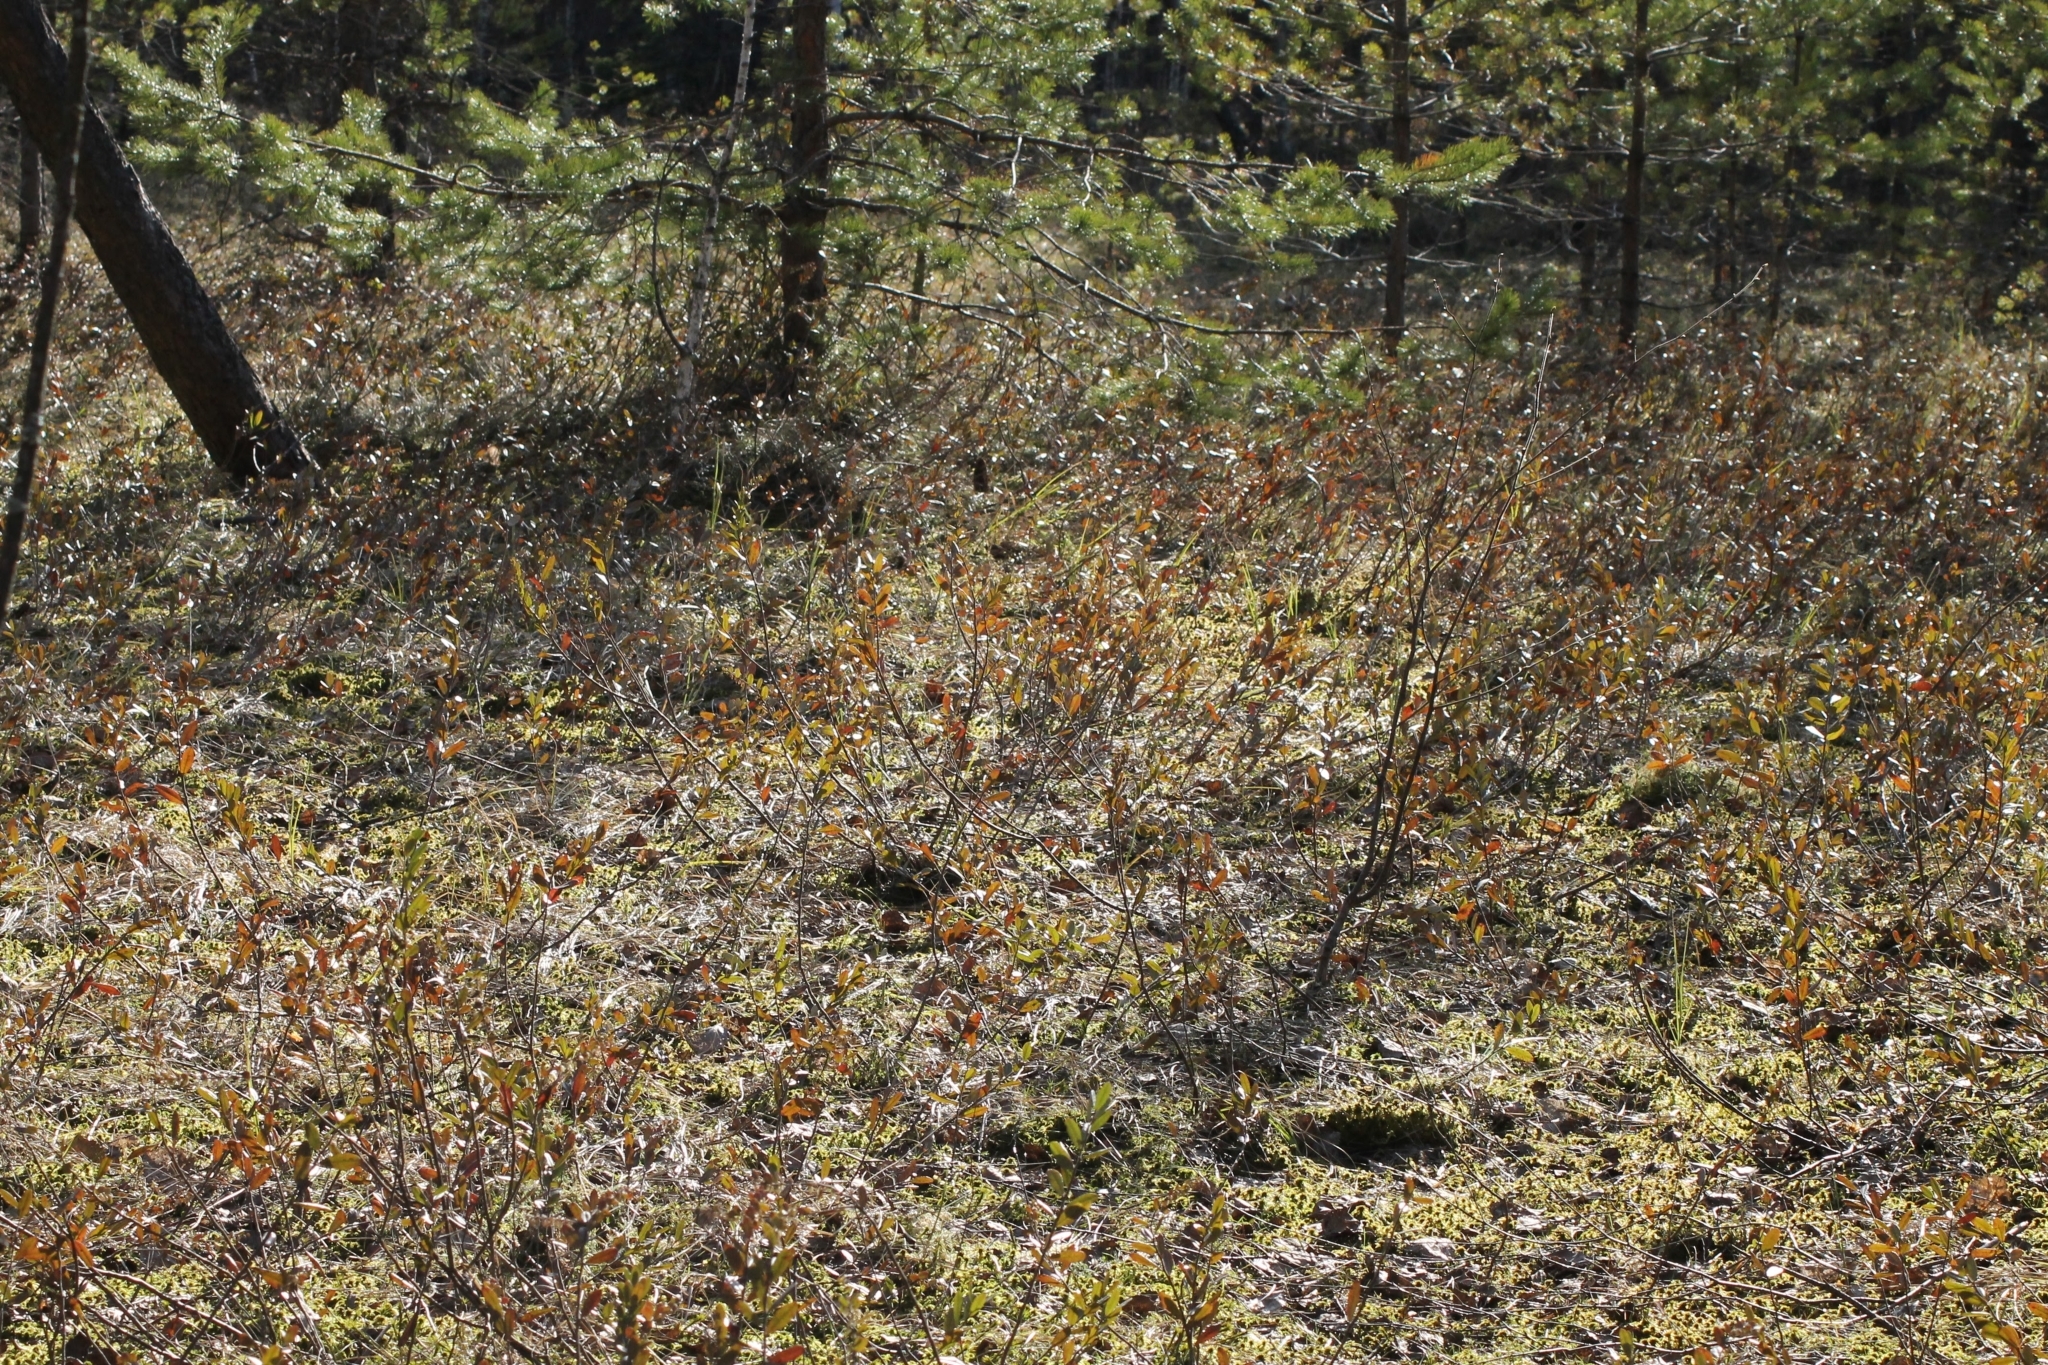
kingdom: Plantae
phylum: Tracheophyta
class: Magnoliopsida
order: Ericales
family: Ericaceae
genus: Vaccinium
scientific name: Vaccinium oxycoccos
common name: Cranberry
